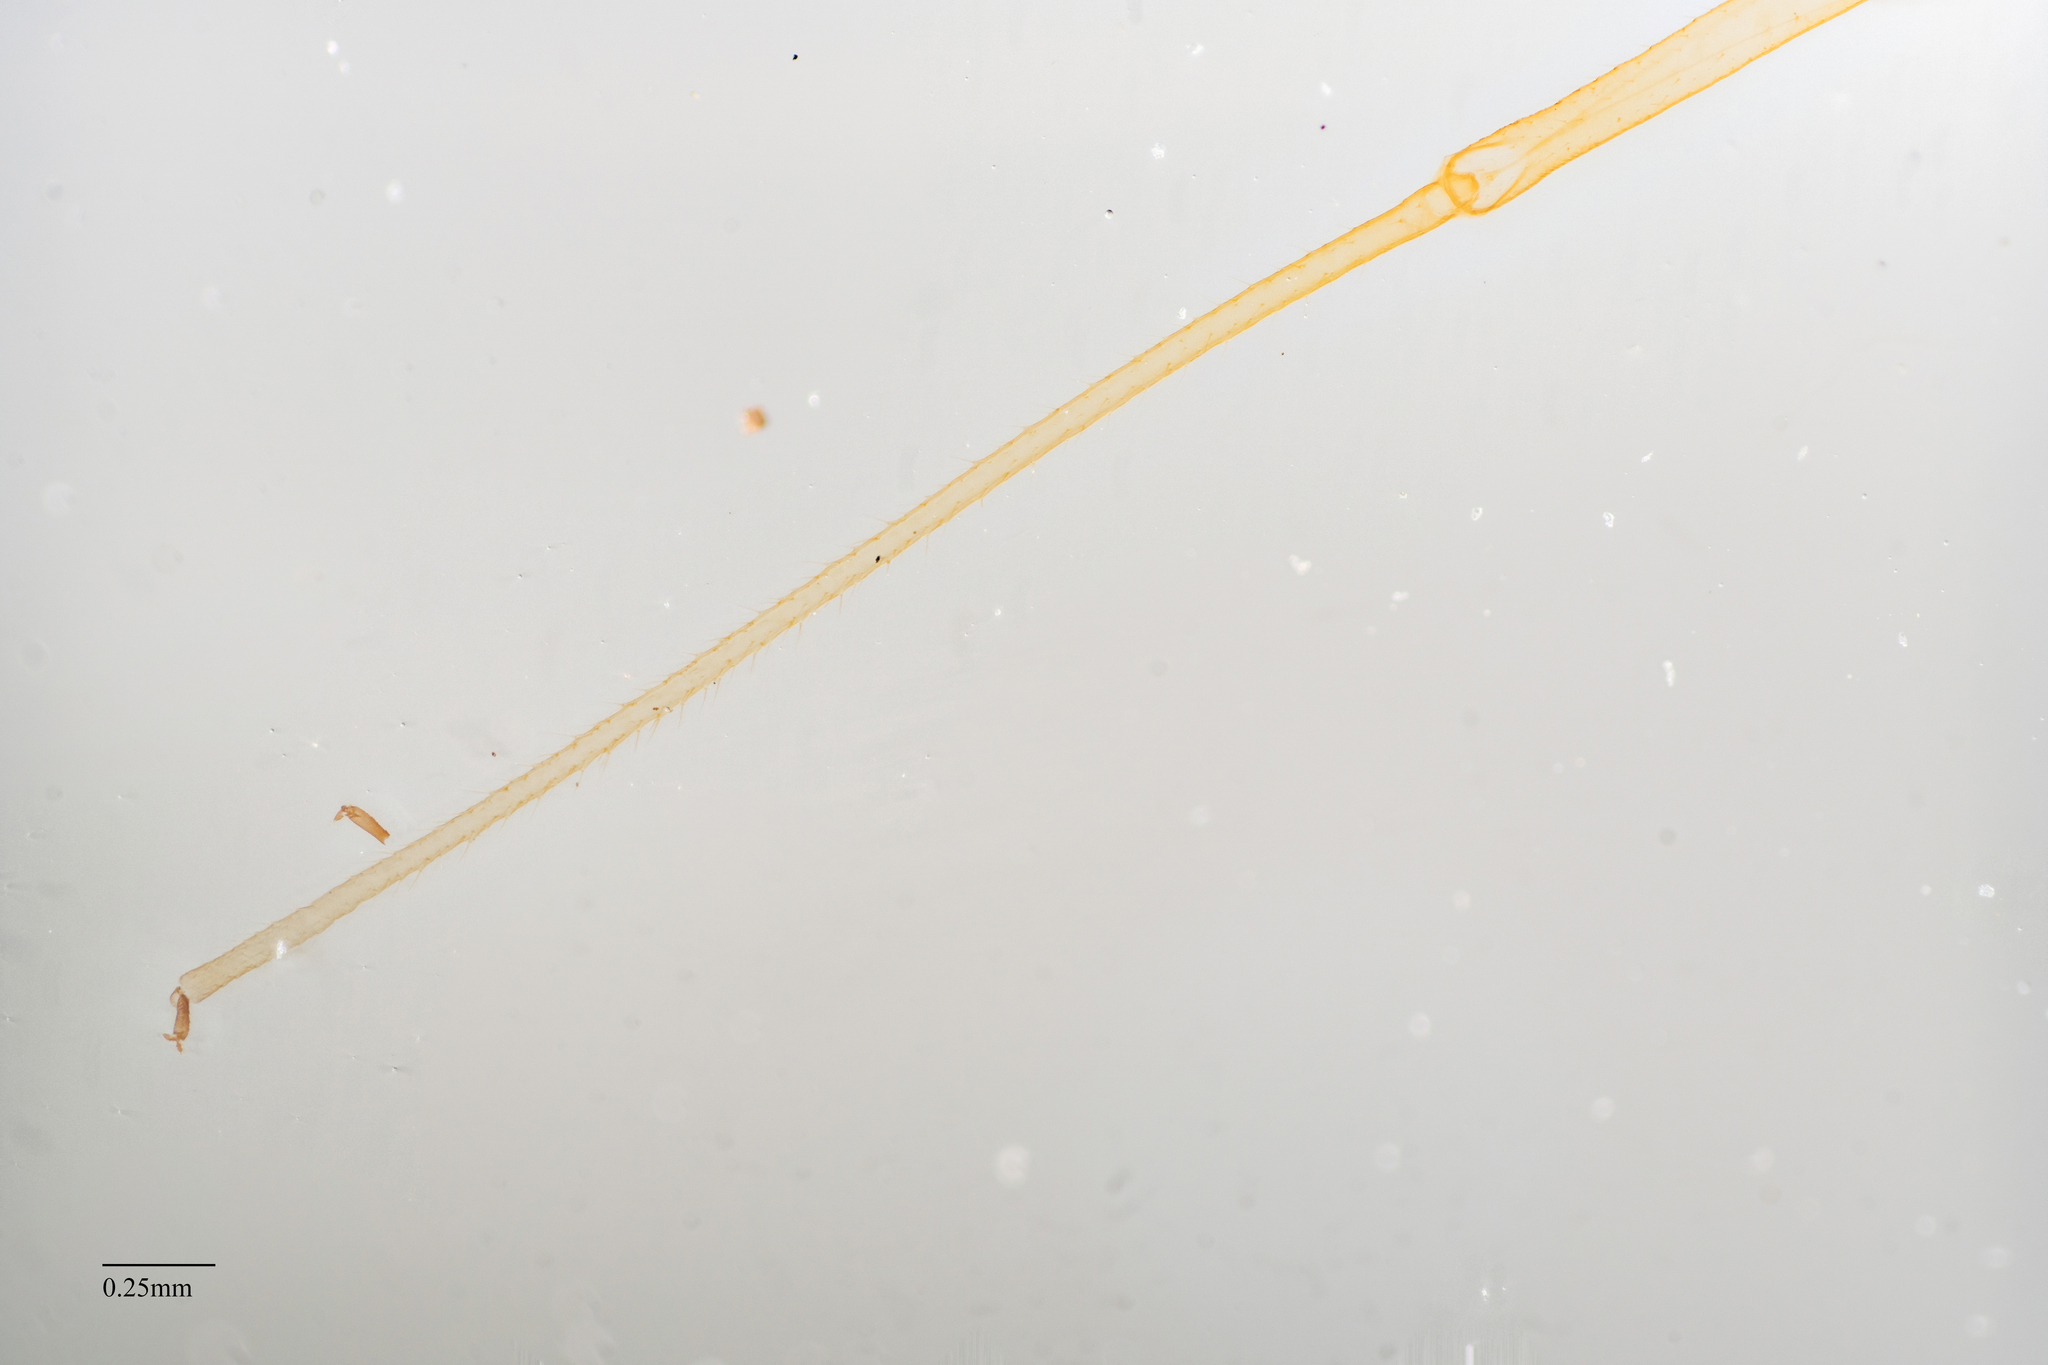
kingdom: Animalia
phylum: Arthropoda
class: Insecta
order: Hemiptera
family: Aphididae
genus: Illinoia
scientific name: Illinoia crystleae
